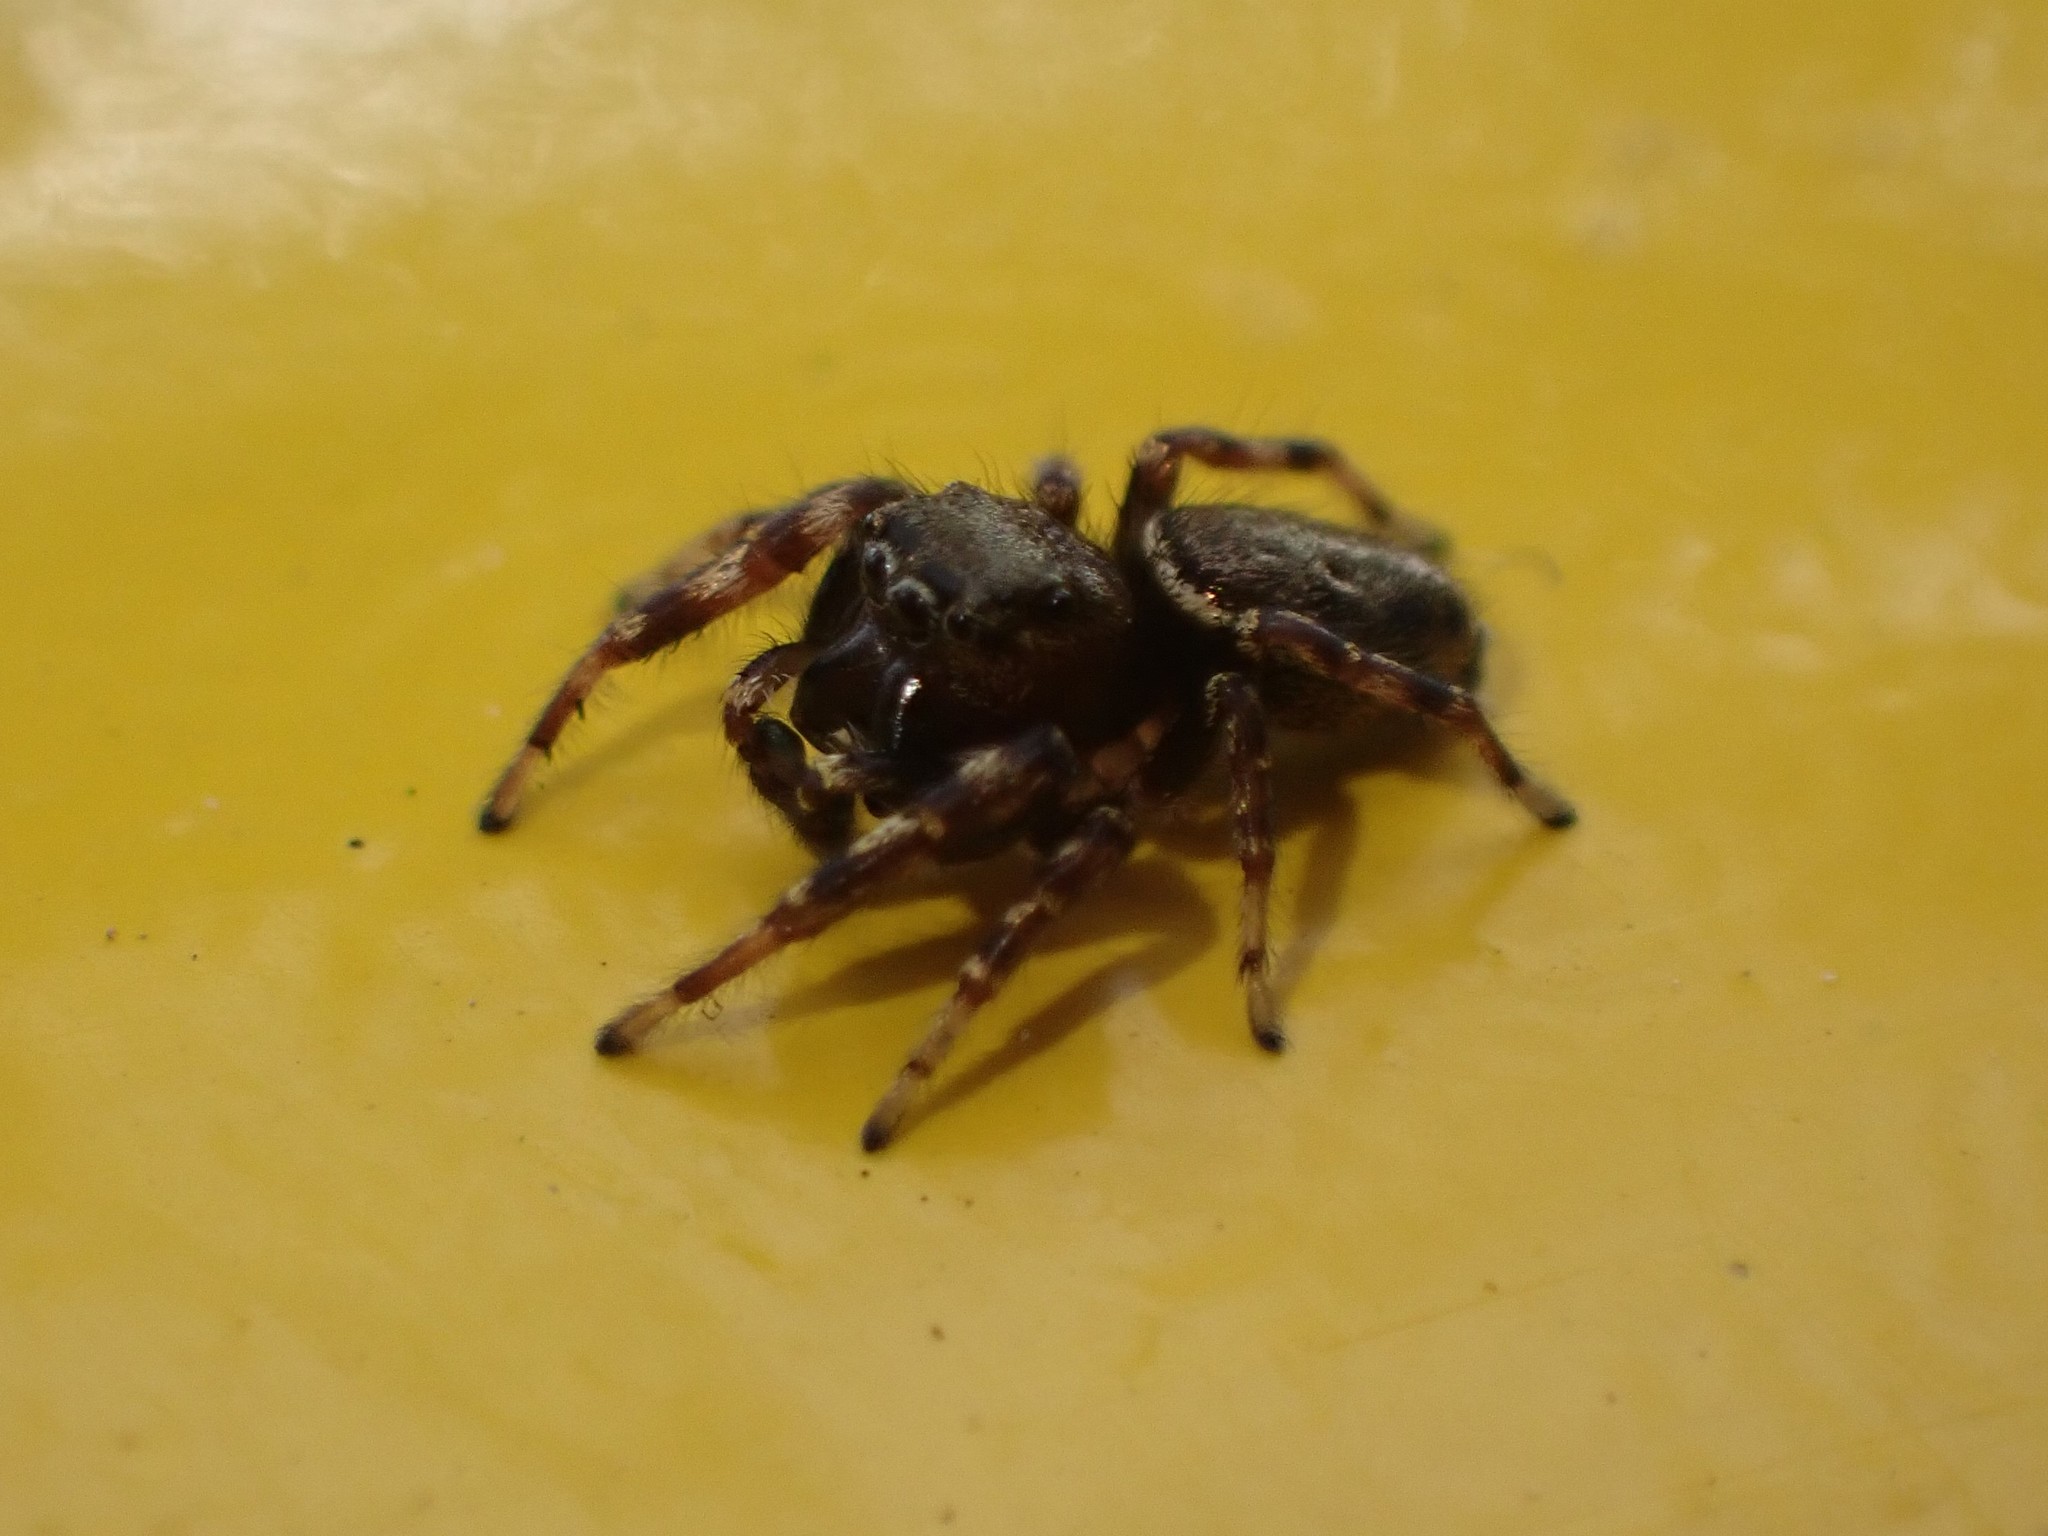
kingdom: Animalia
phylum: Arthropoda
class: Arachnida
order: Araneae
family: Salticidae
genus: Pelegrina
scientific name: Pelegrina aeneola
